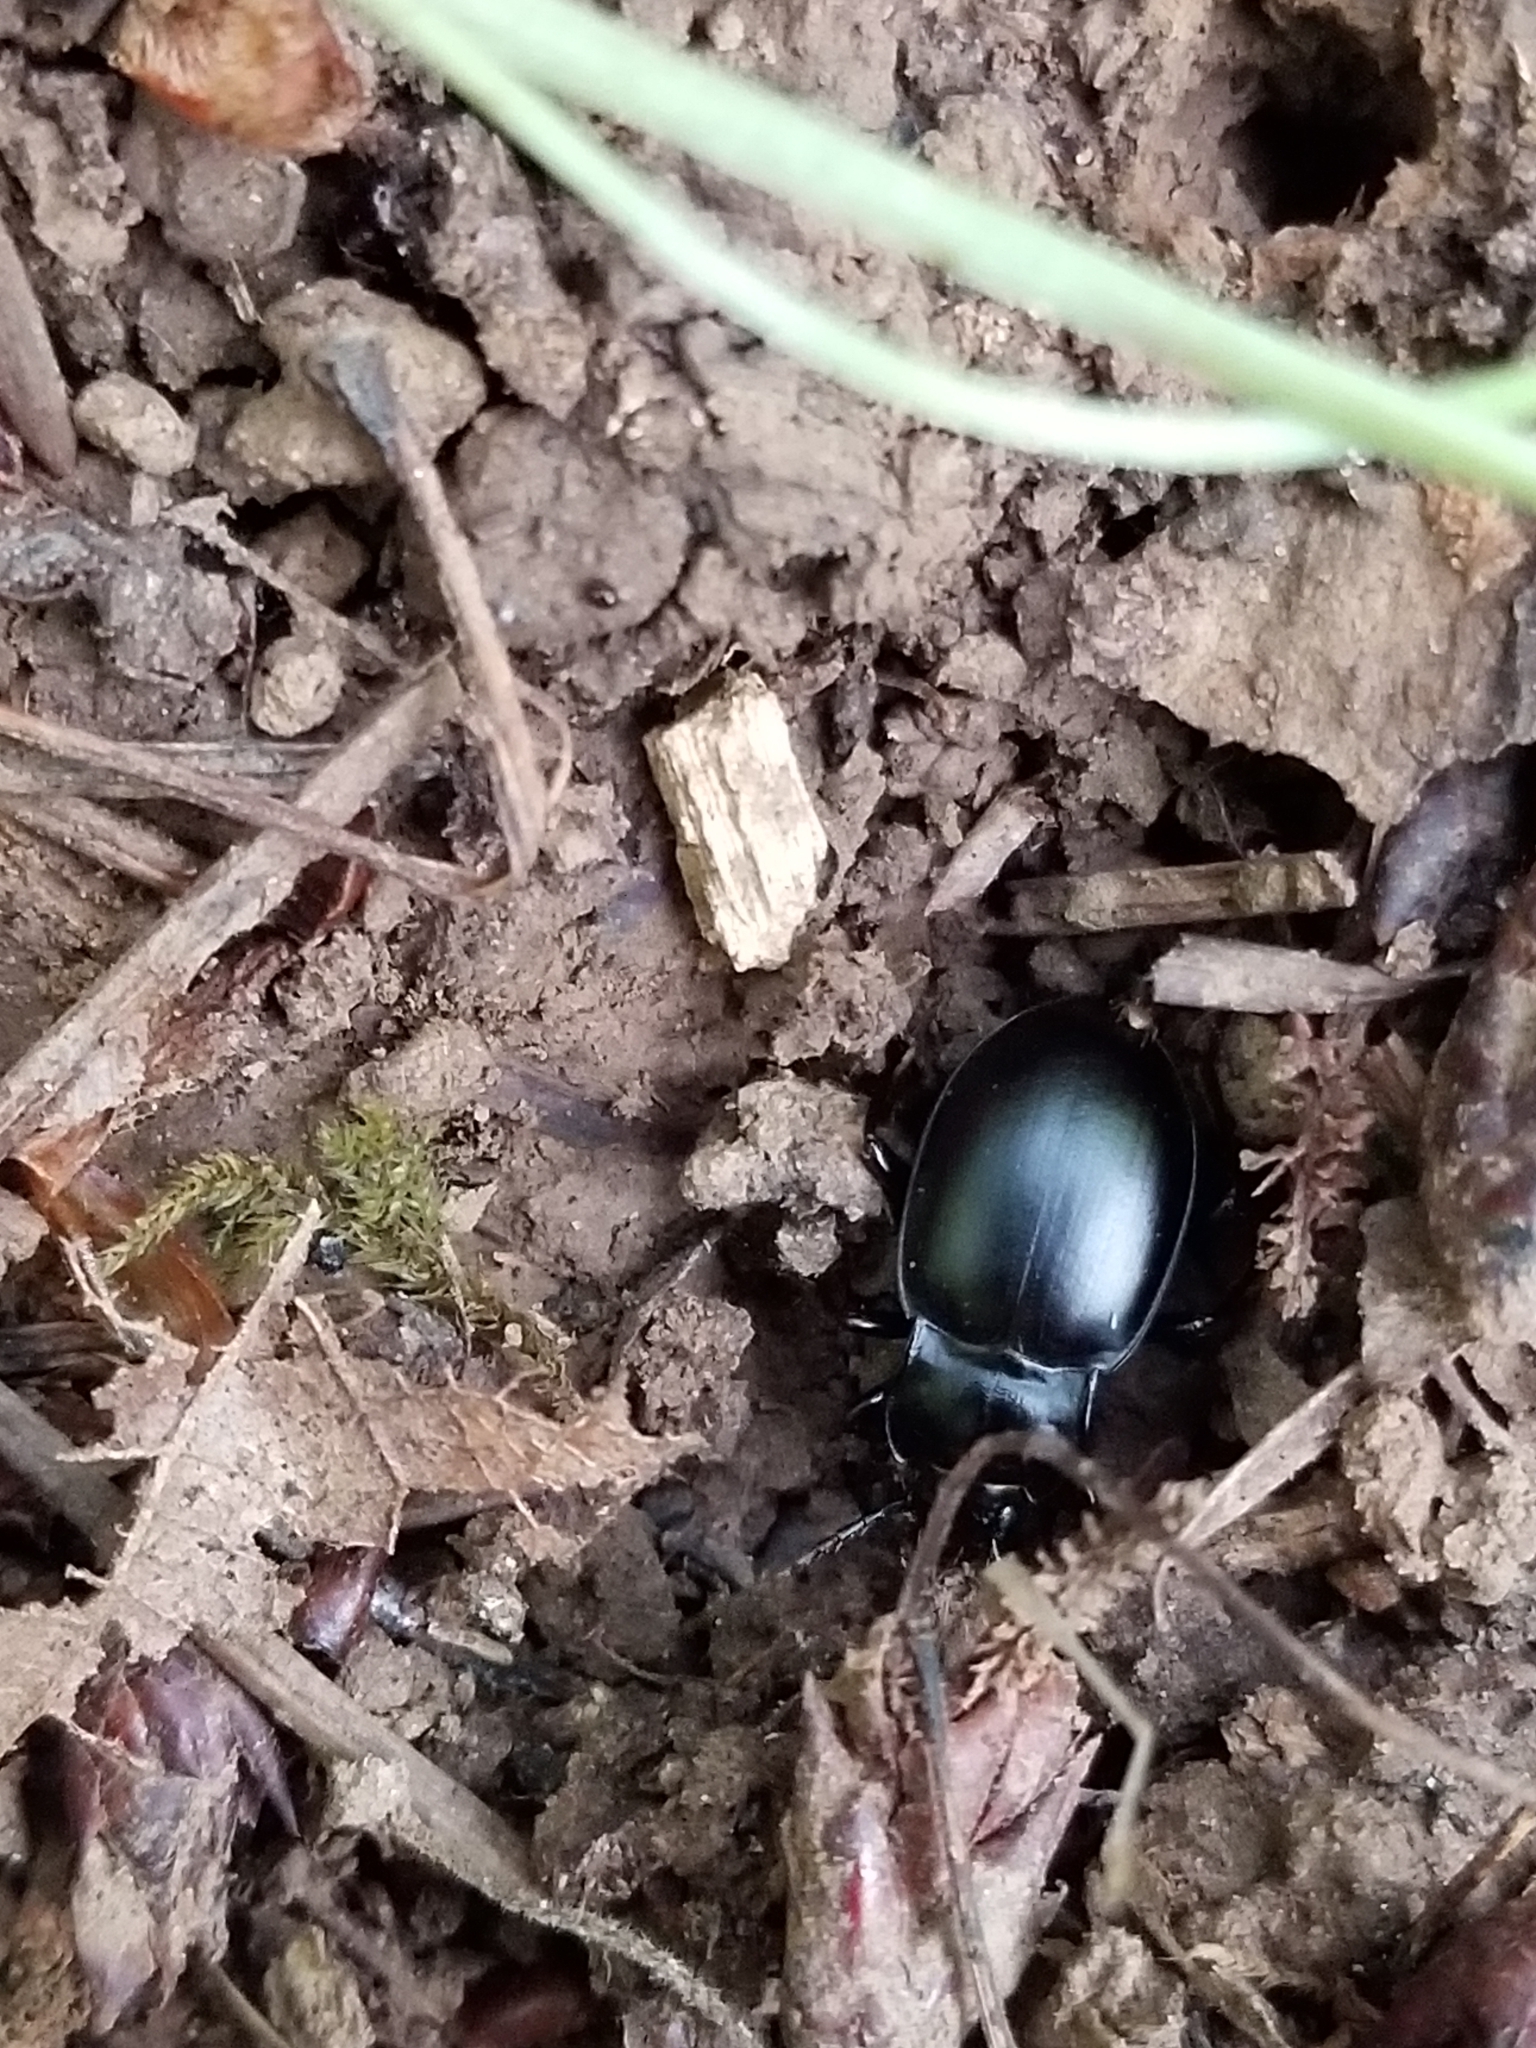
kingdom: Animalia
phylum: Arthropoda
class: Insecta
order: Coleoptera
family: Carabidae
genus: Metrius
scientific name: Metrius contractus
